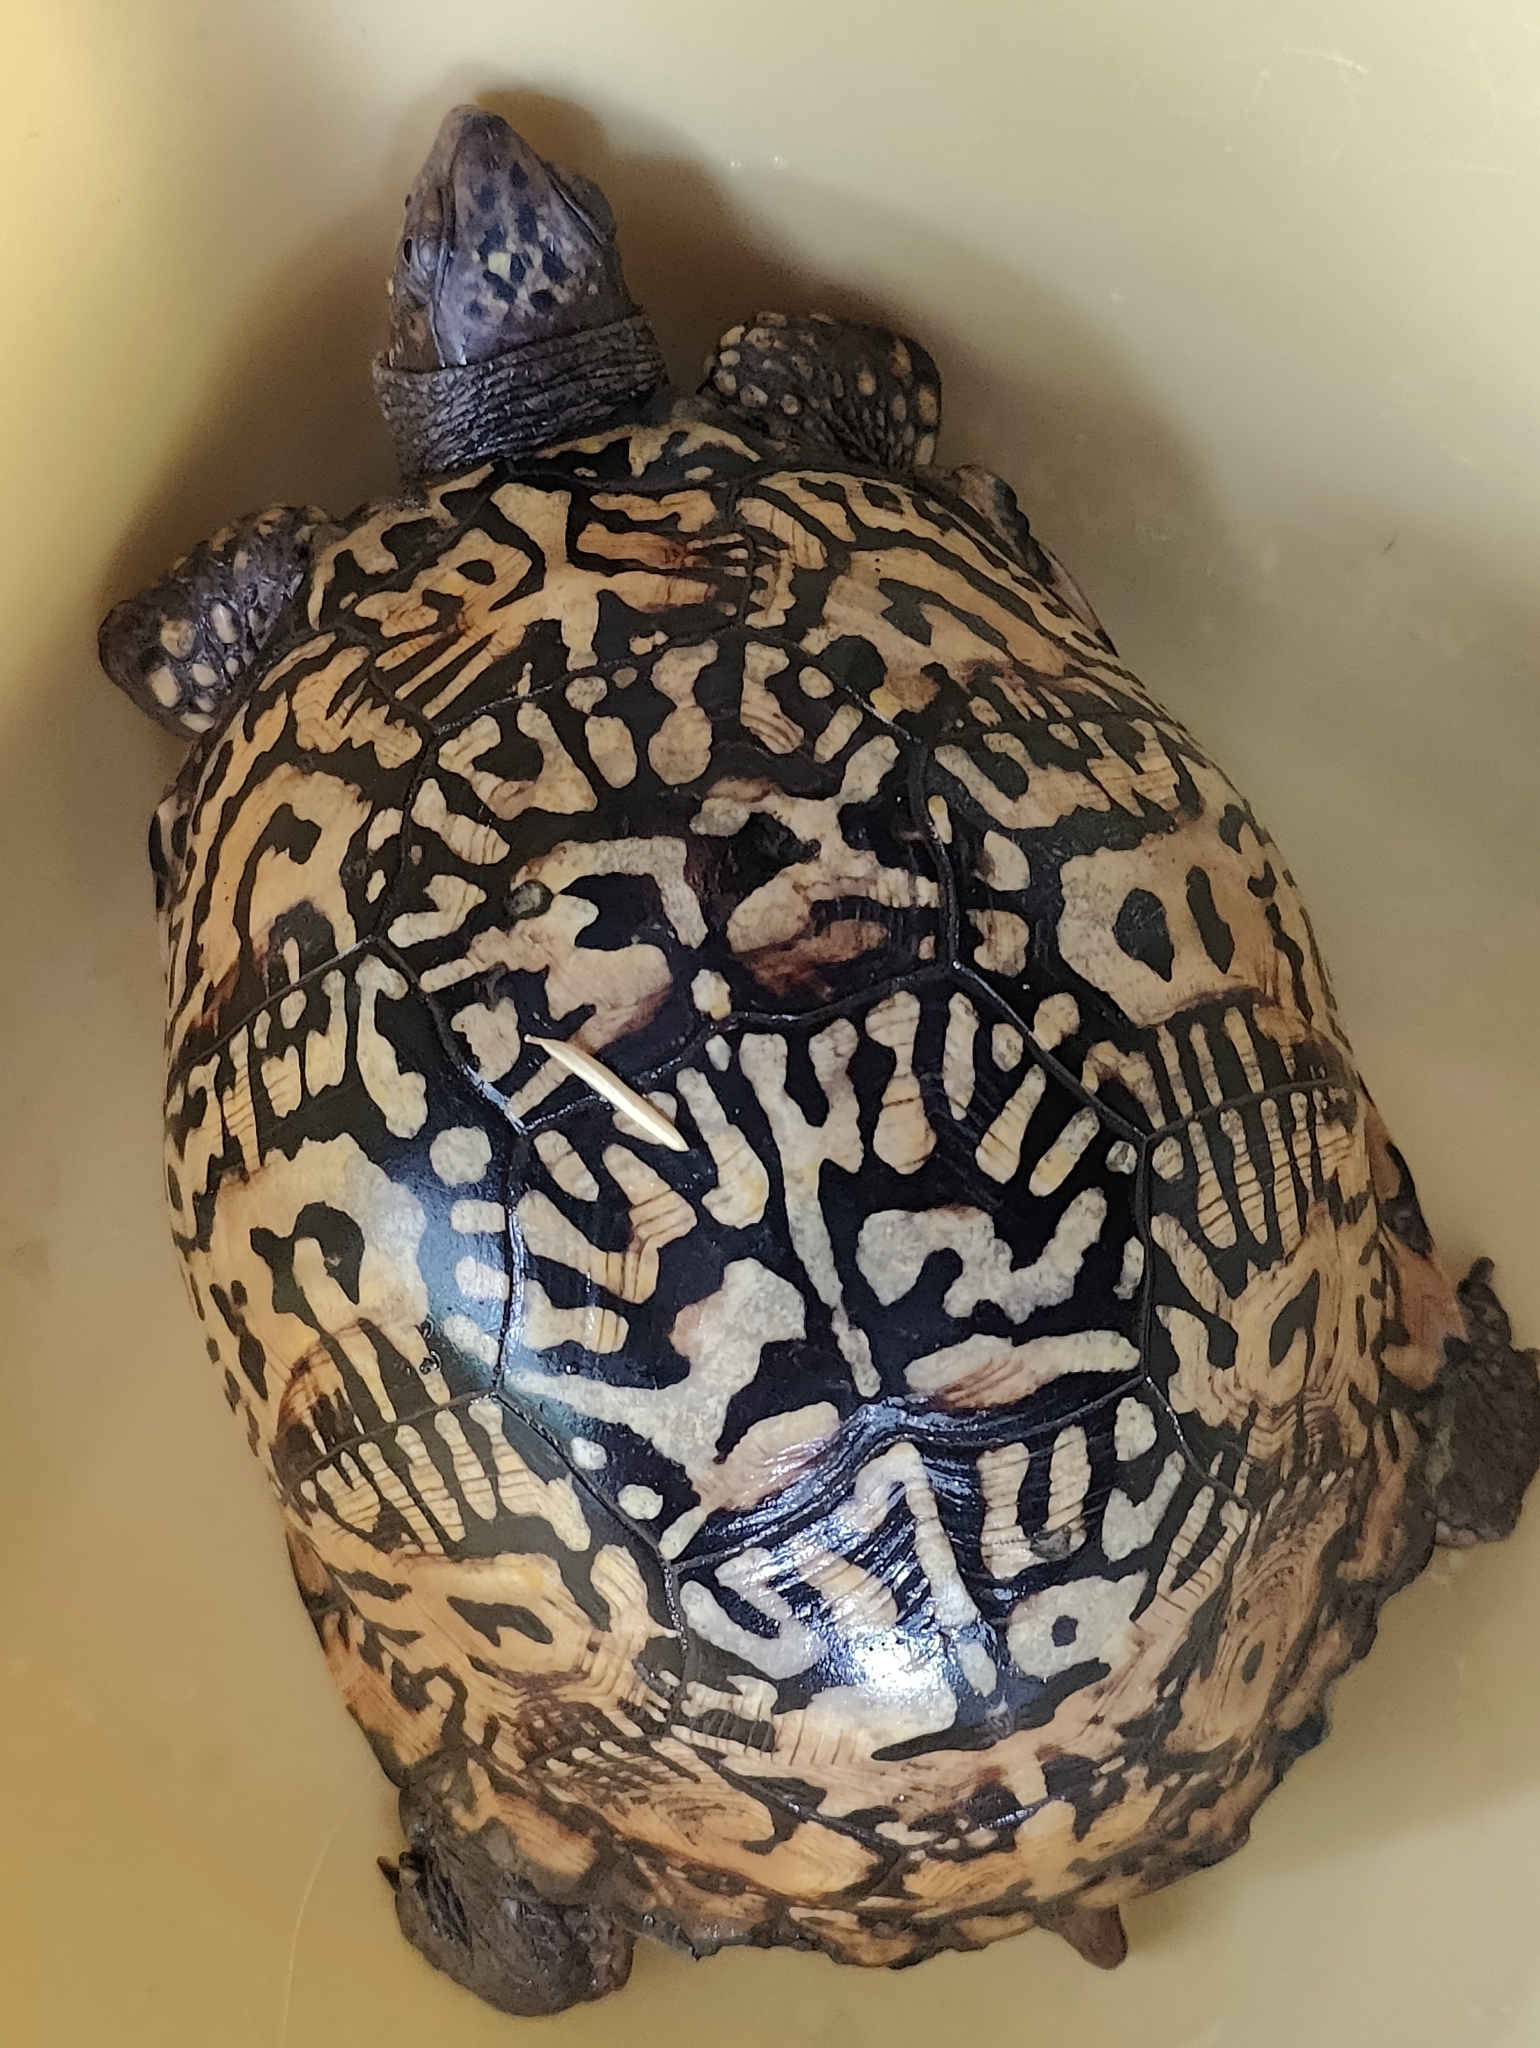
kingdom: Animalia
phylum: Chordata
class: Testudines
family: Emydidae
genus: Terrapene
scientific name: Terrapene carolina
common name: Common box turtle
